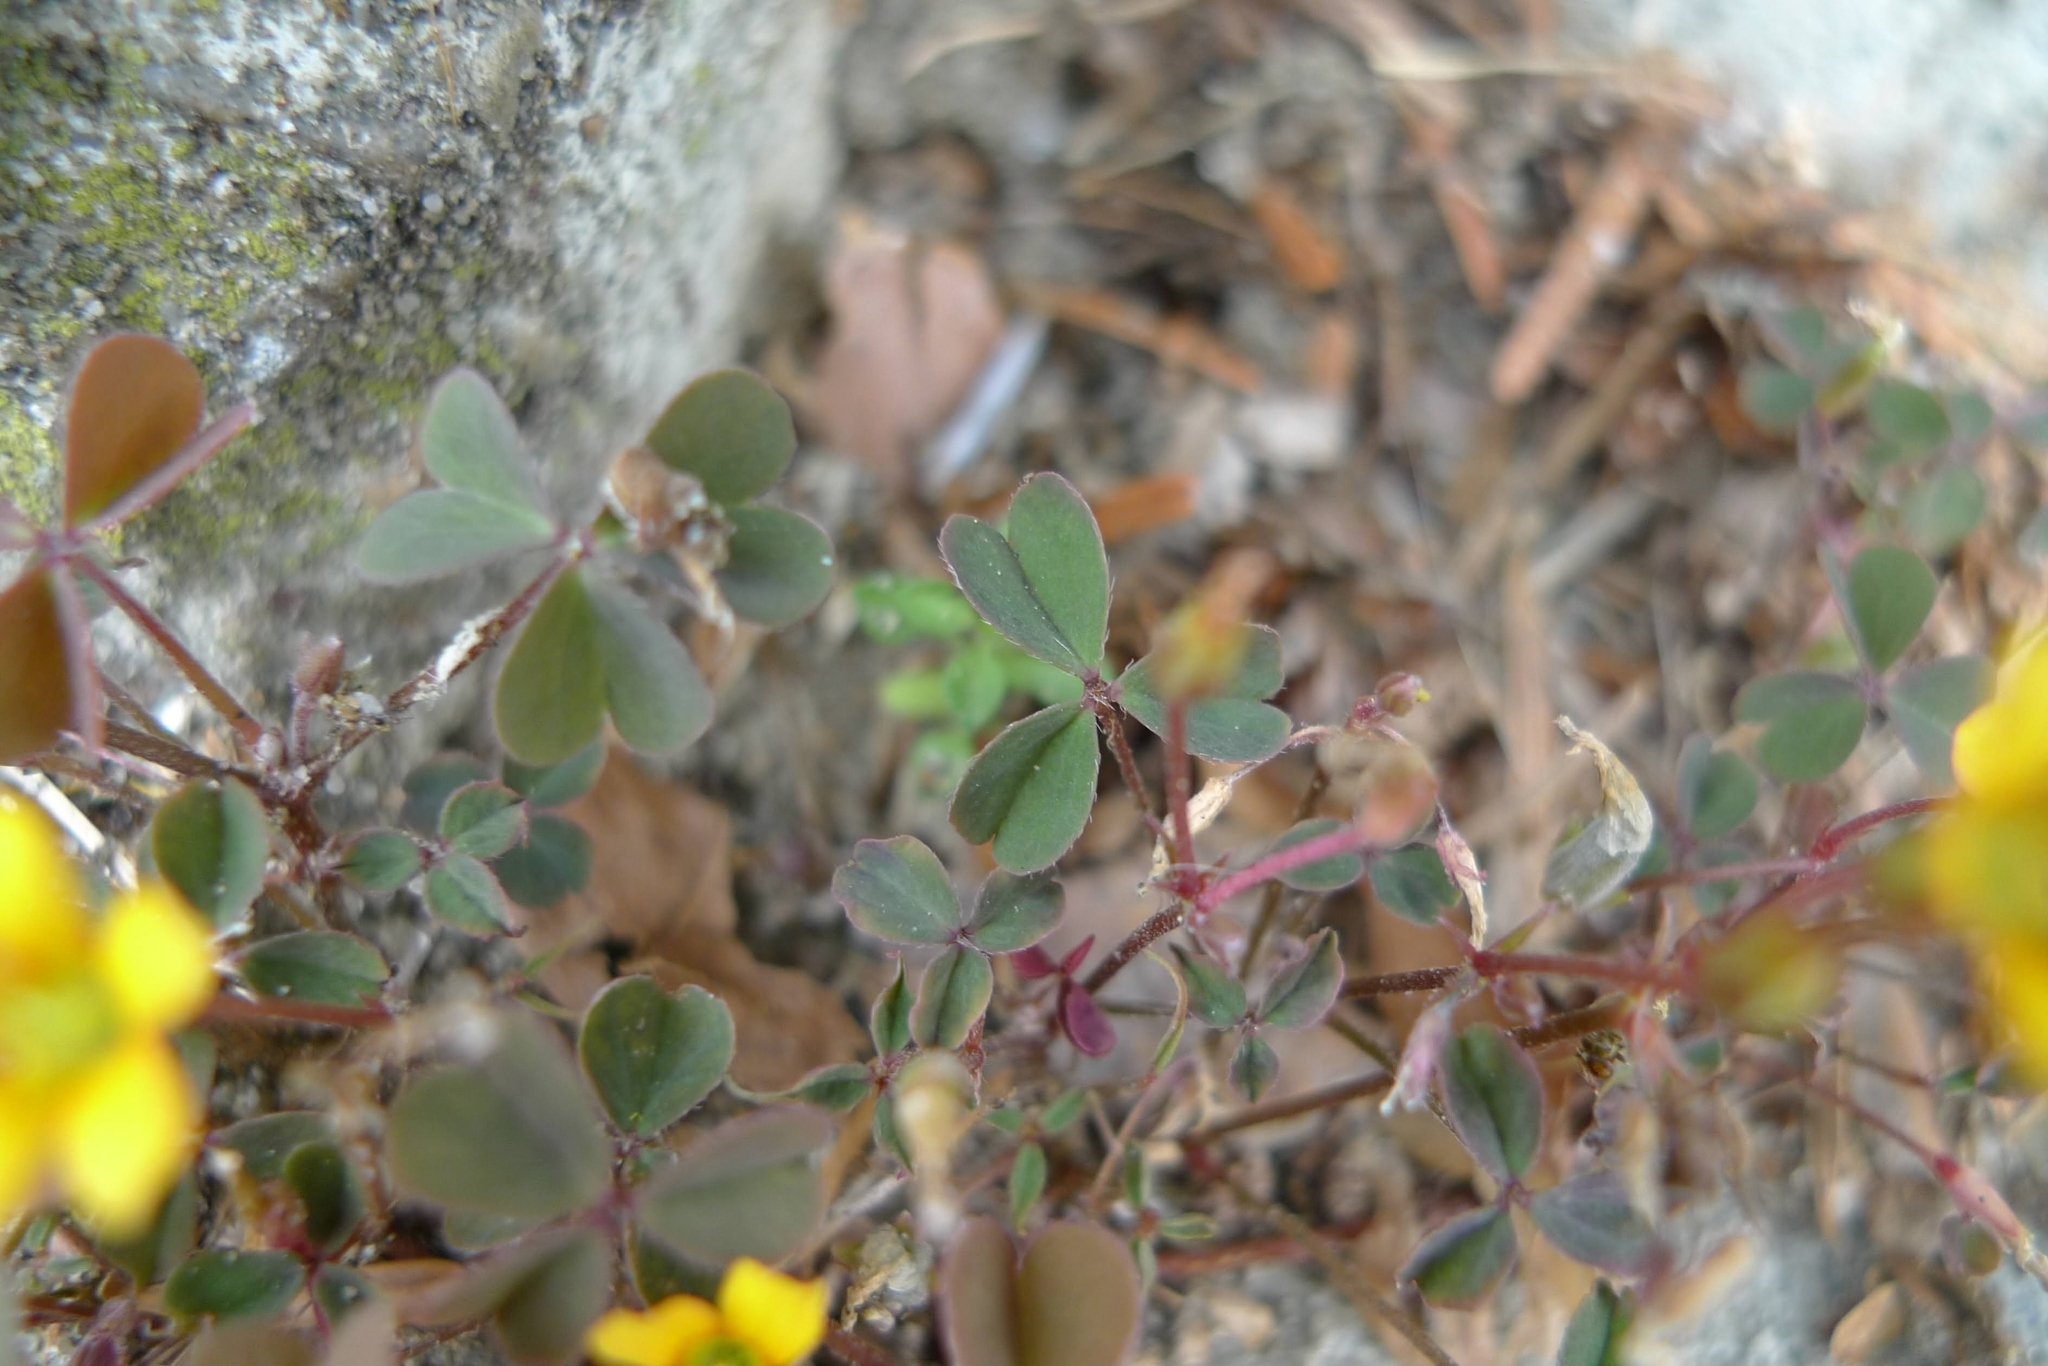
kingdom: Plantae
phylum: Tracheophyta
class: Magnoliopsida
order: Oxalidales
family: Oxalidaceae
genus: Oxalis
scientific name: Oxalis corniculata
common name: Procumbent yellow-sorrel
